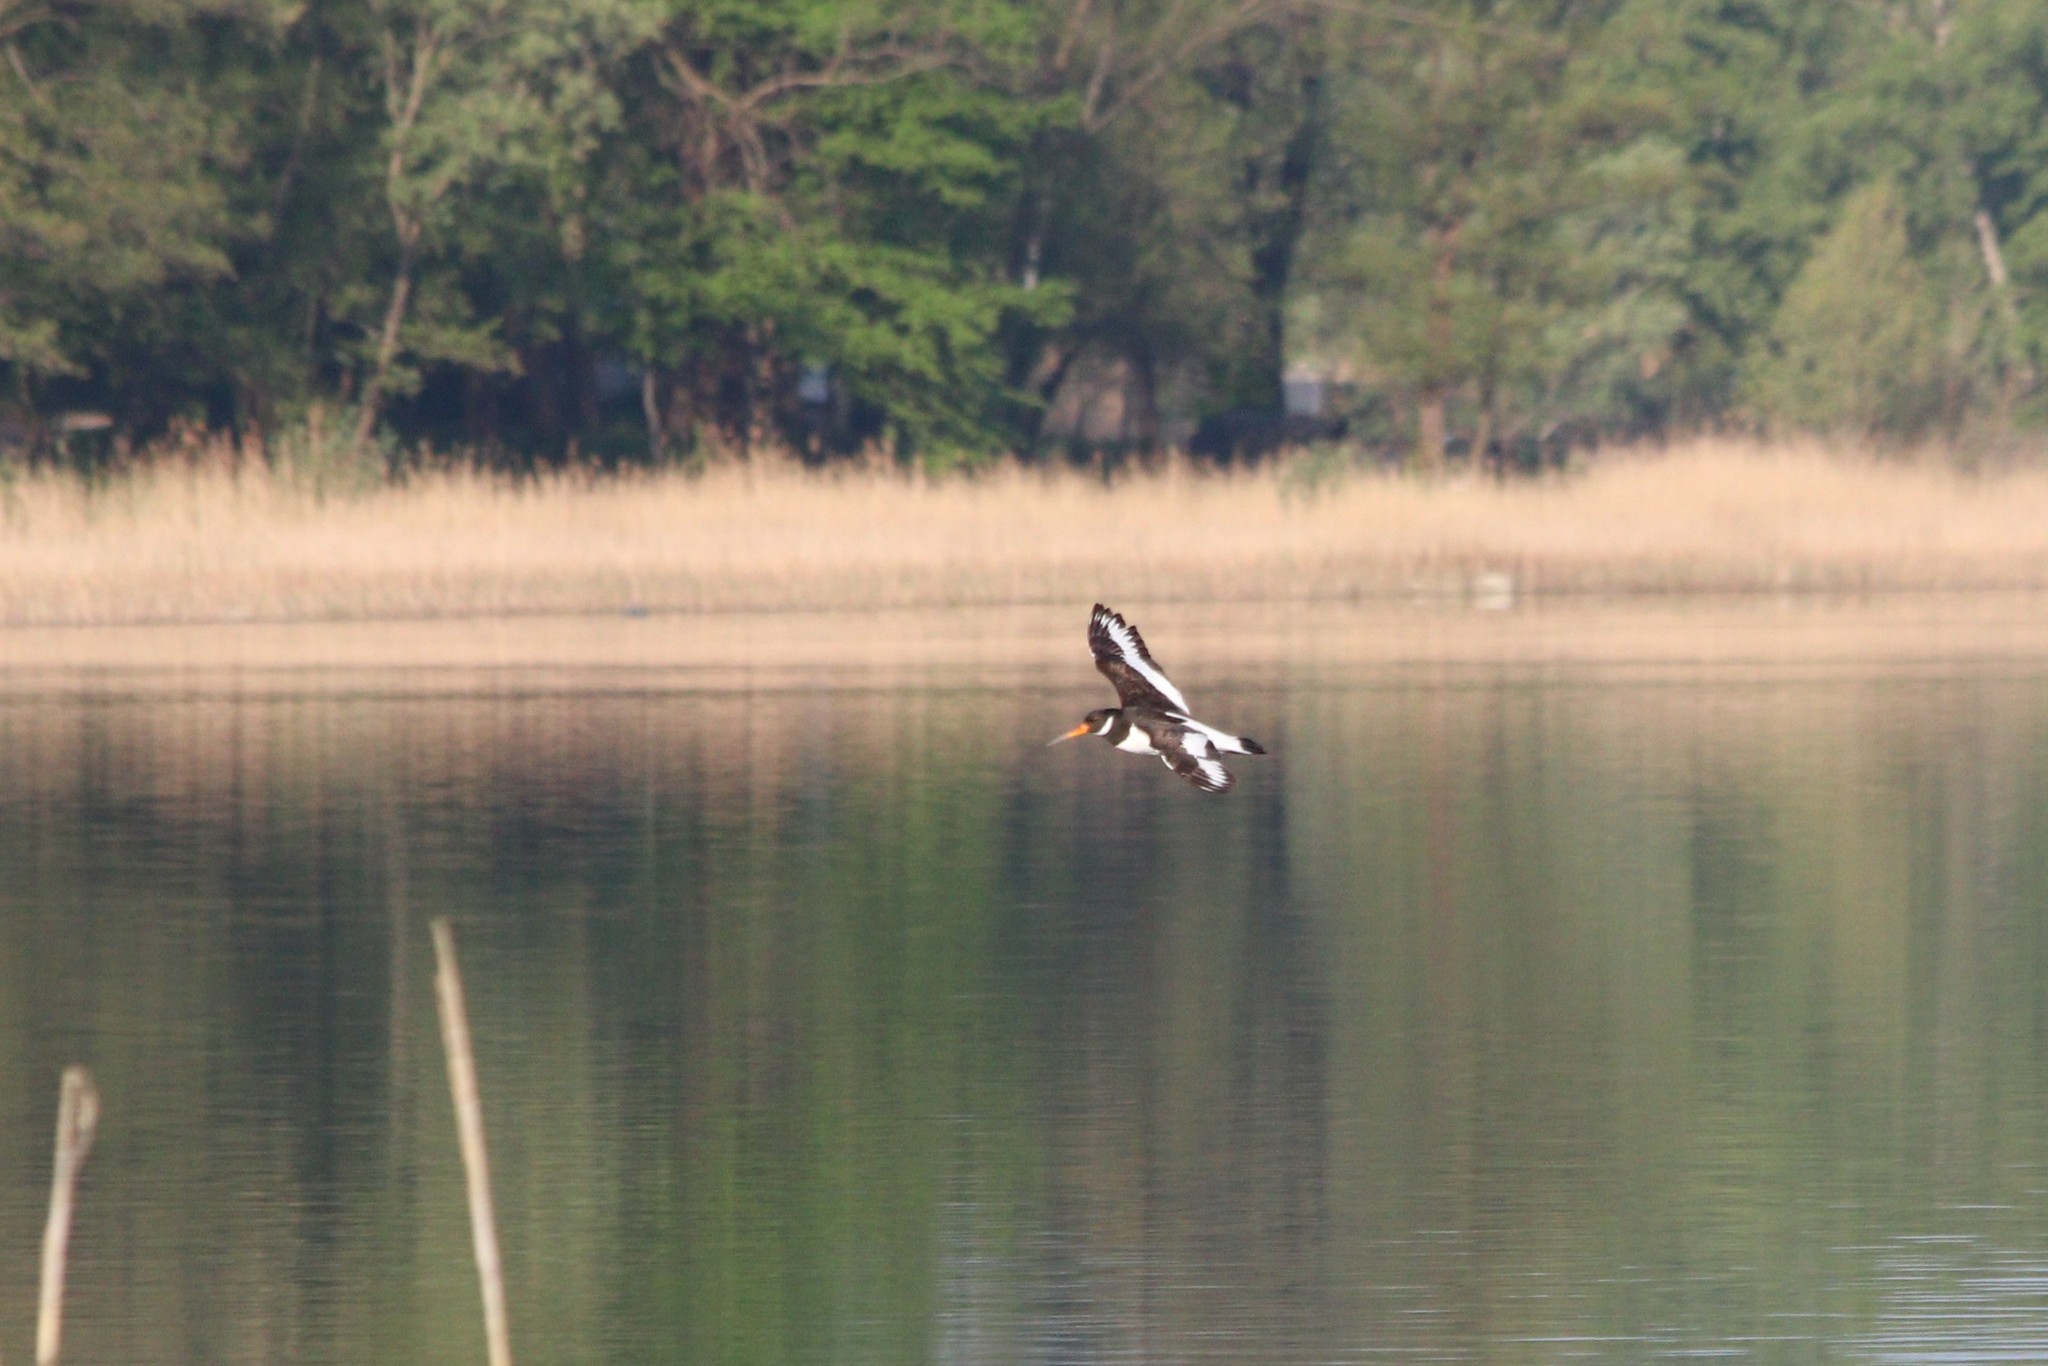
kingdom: Animalia
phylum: Chordata
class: Aves
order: Charadriiformes
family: Haematopodidae
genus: Haematopus
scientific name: Haematopus ostralegus
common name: Eurasian oystercatcher
